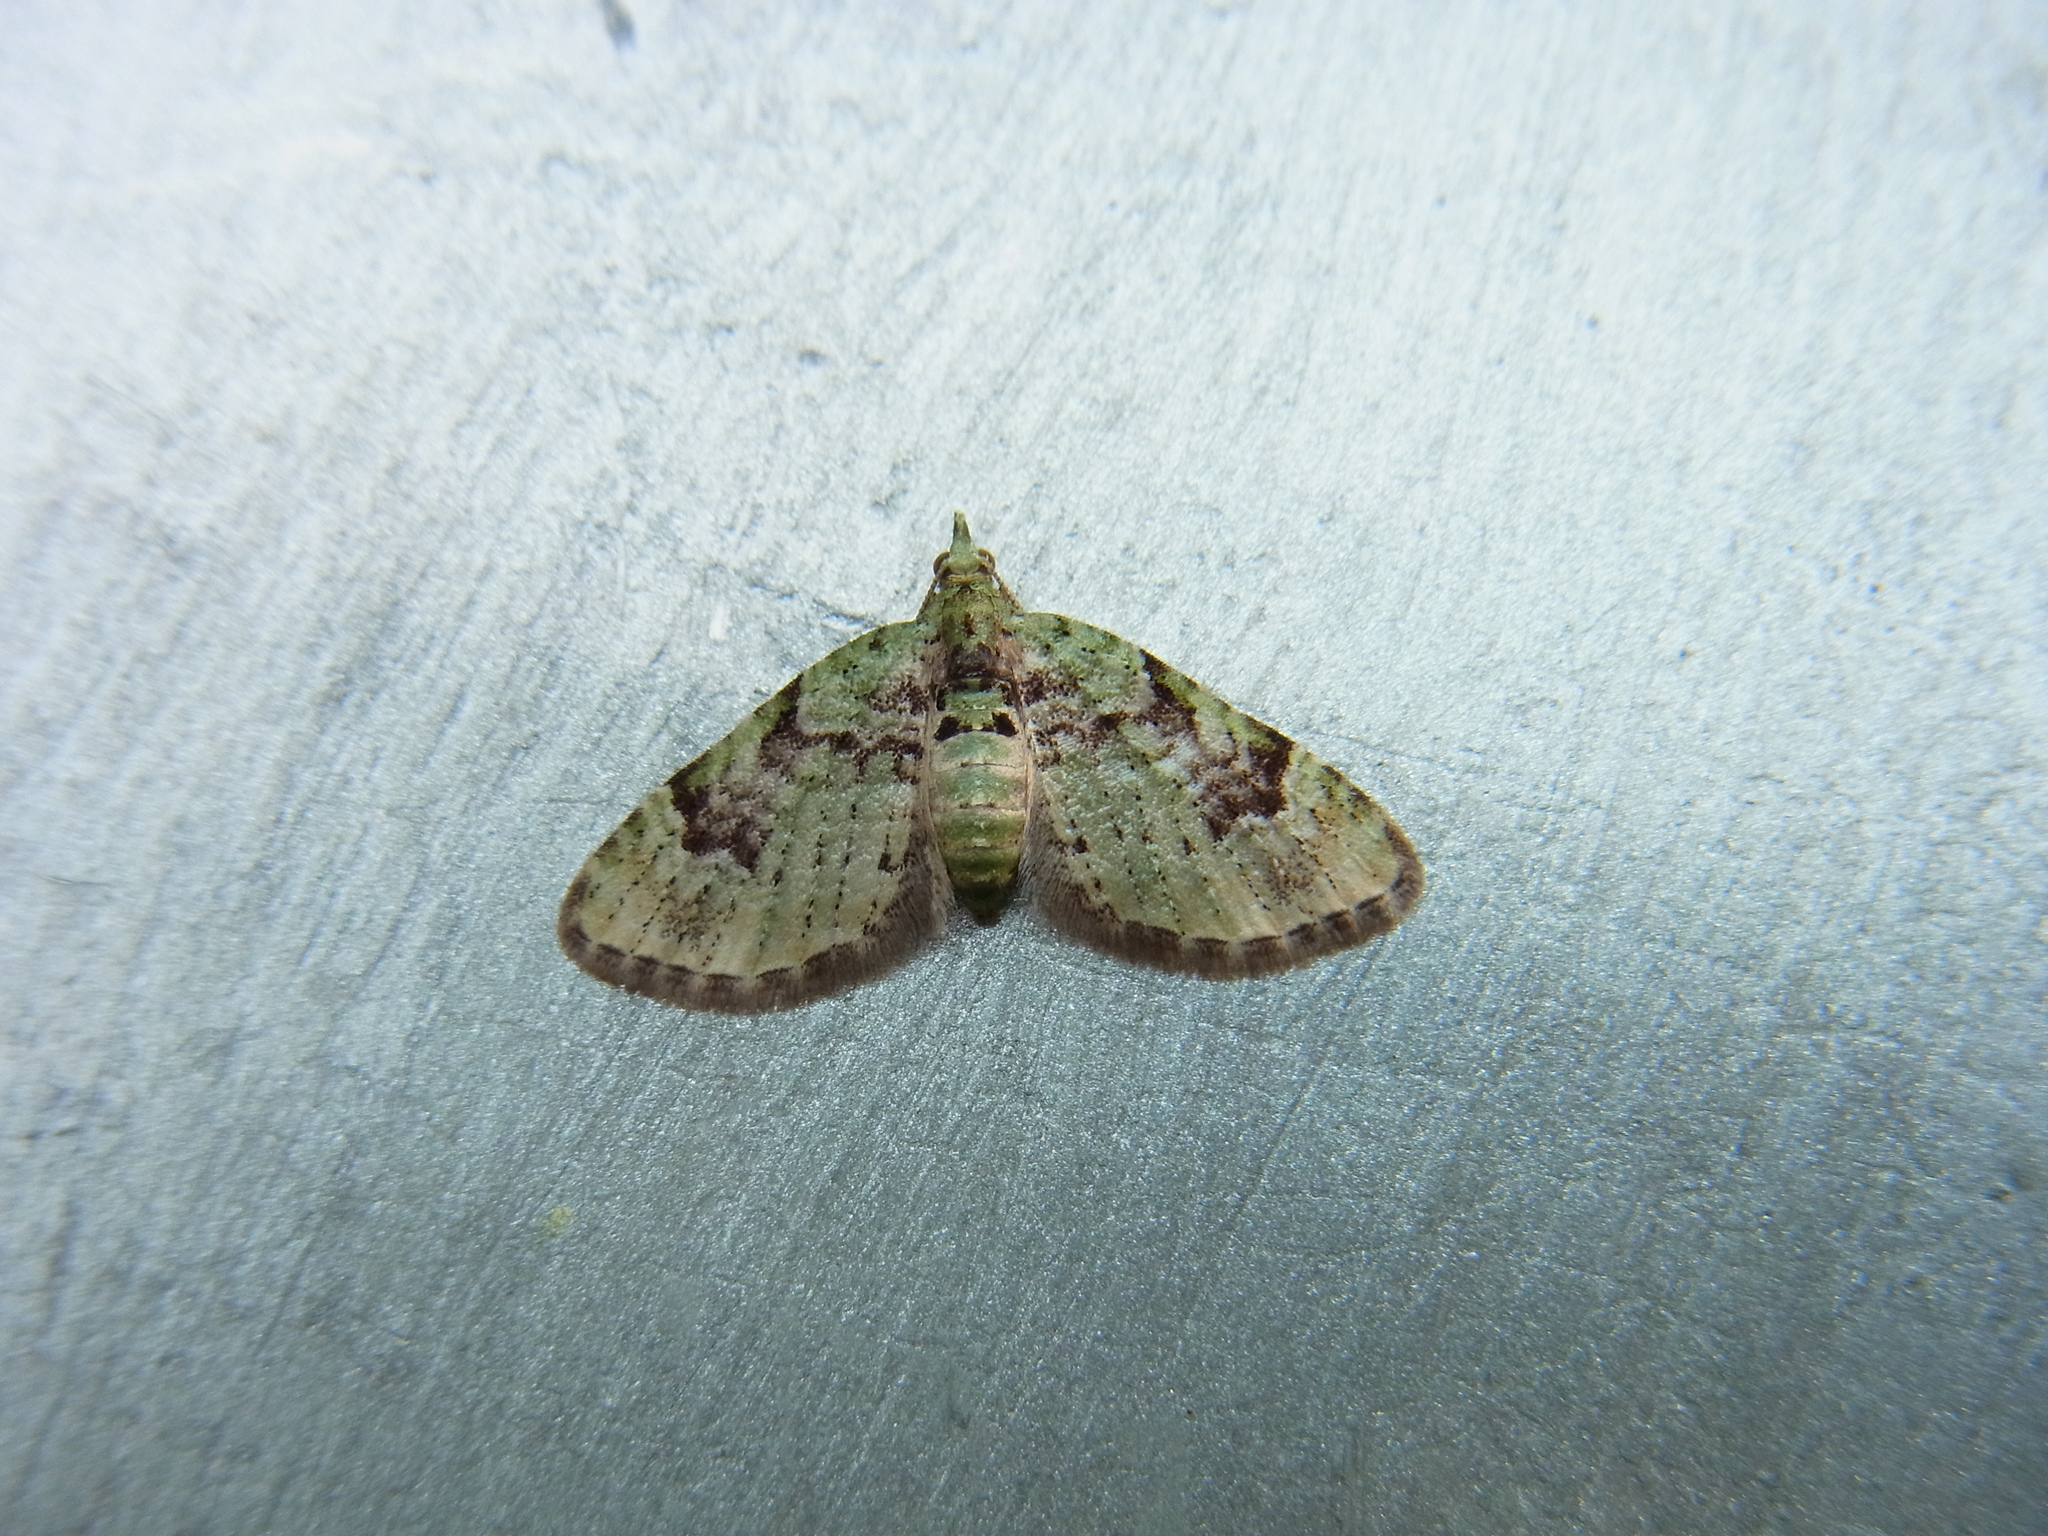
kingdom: Animalia
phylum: Arthropoda
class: Insecta
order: Lepidoptera
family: Geometridae
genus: Chloroclystis
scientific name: Chloroclystis v-ata
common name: V-pug
